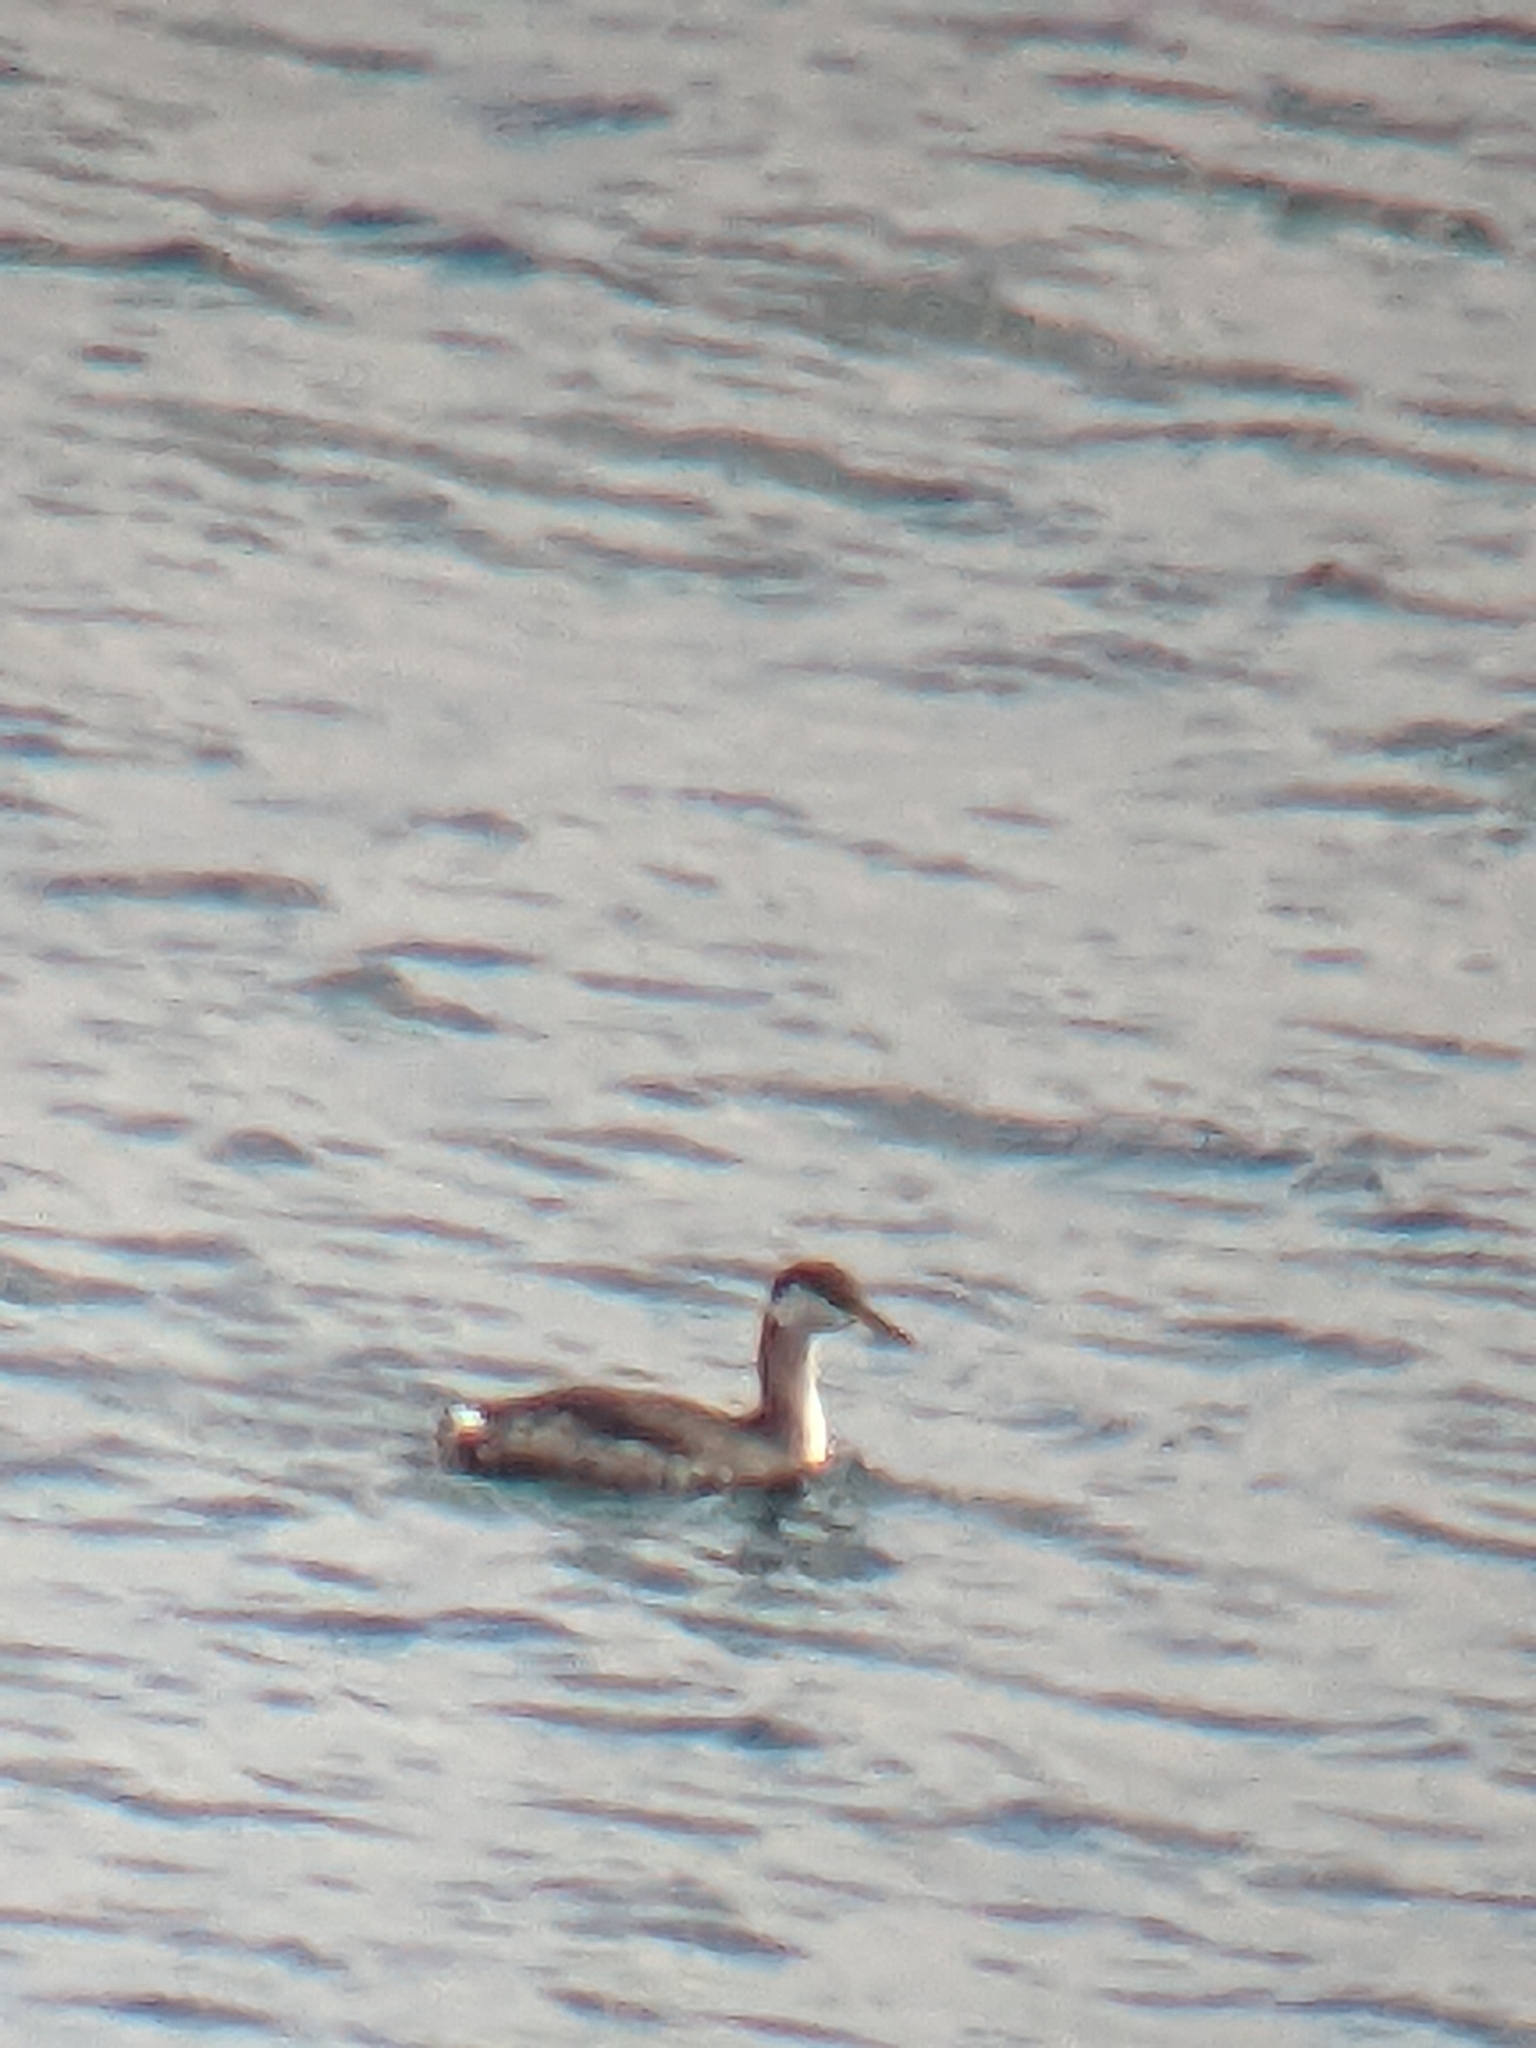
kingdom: Animalia
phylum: Chordata
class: Aves
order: Podicipediformes
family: Podicipedidae
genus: Podiceps
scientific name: Podiceps grisegena
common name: Red-necked grebe
